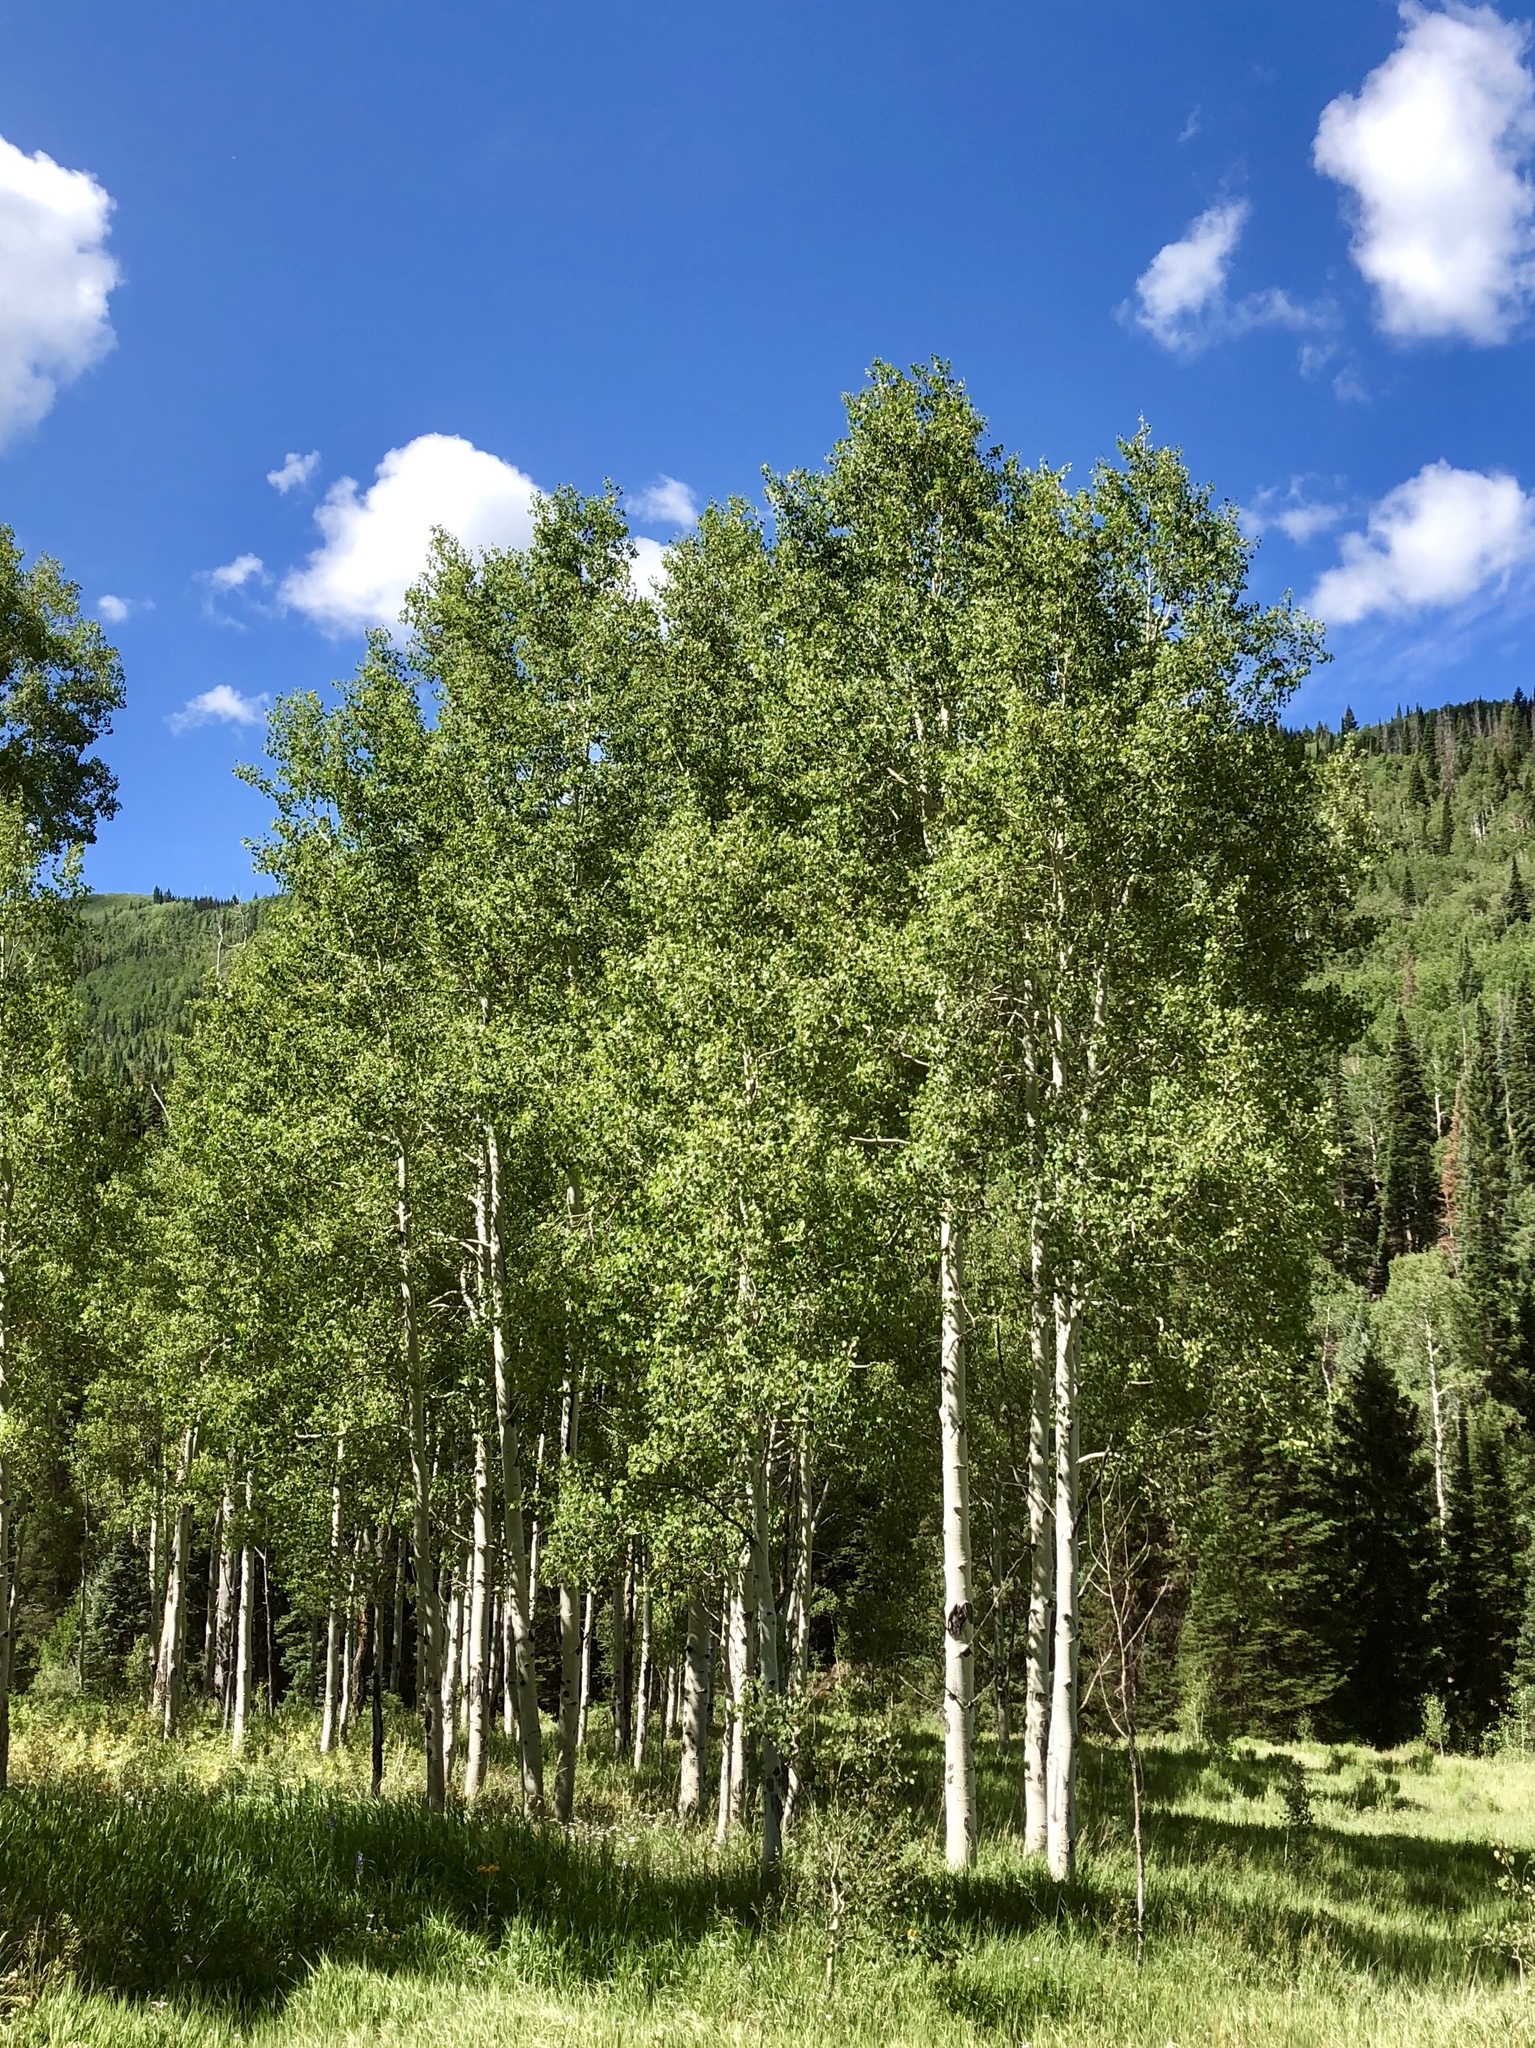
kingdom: Plantae
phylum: Tracheophyta
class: Magnoliopsida
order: Malpighiales
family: Salicaceae
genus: Populus
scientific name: Populus tremuloides
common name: Quaking aspen
